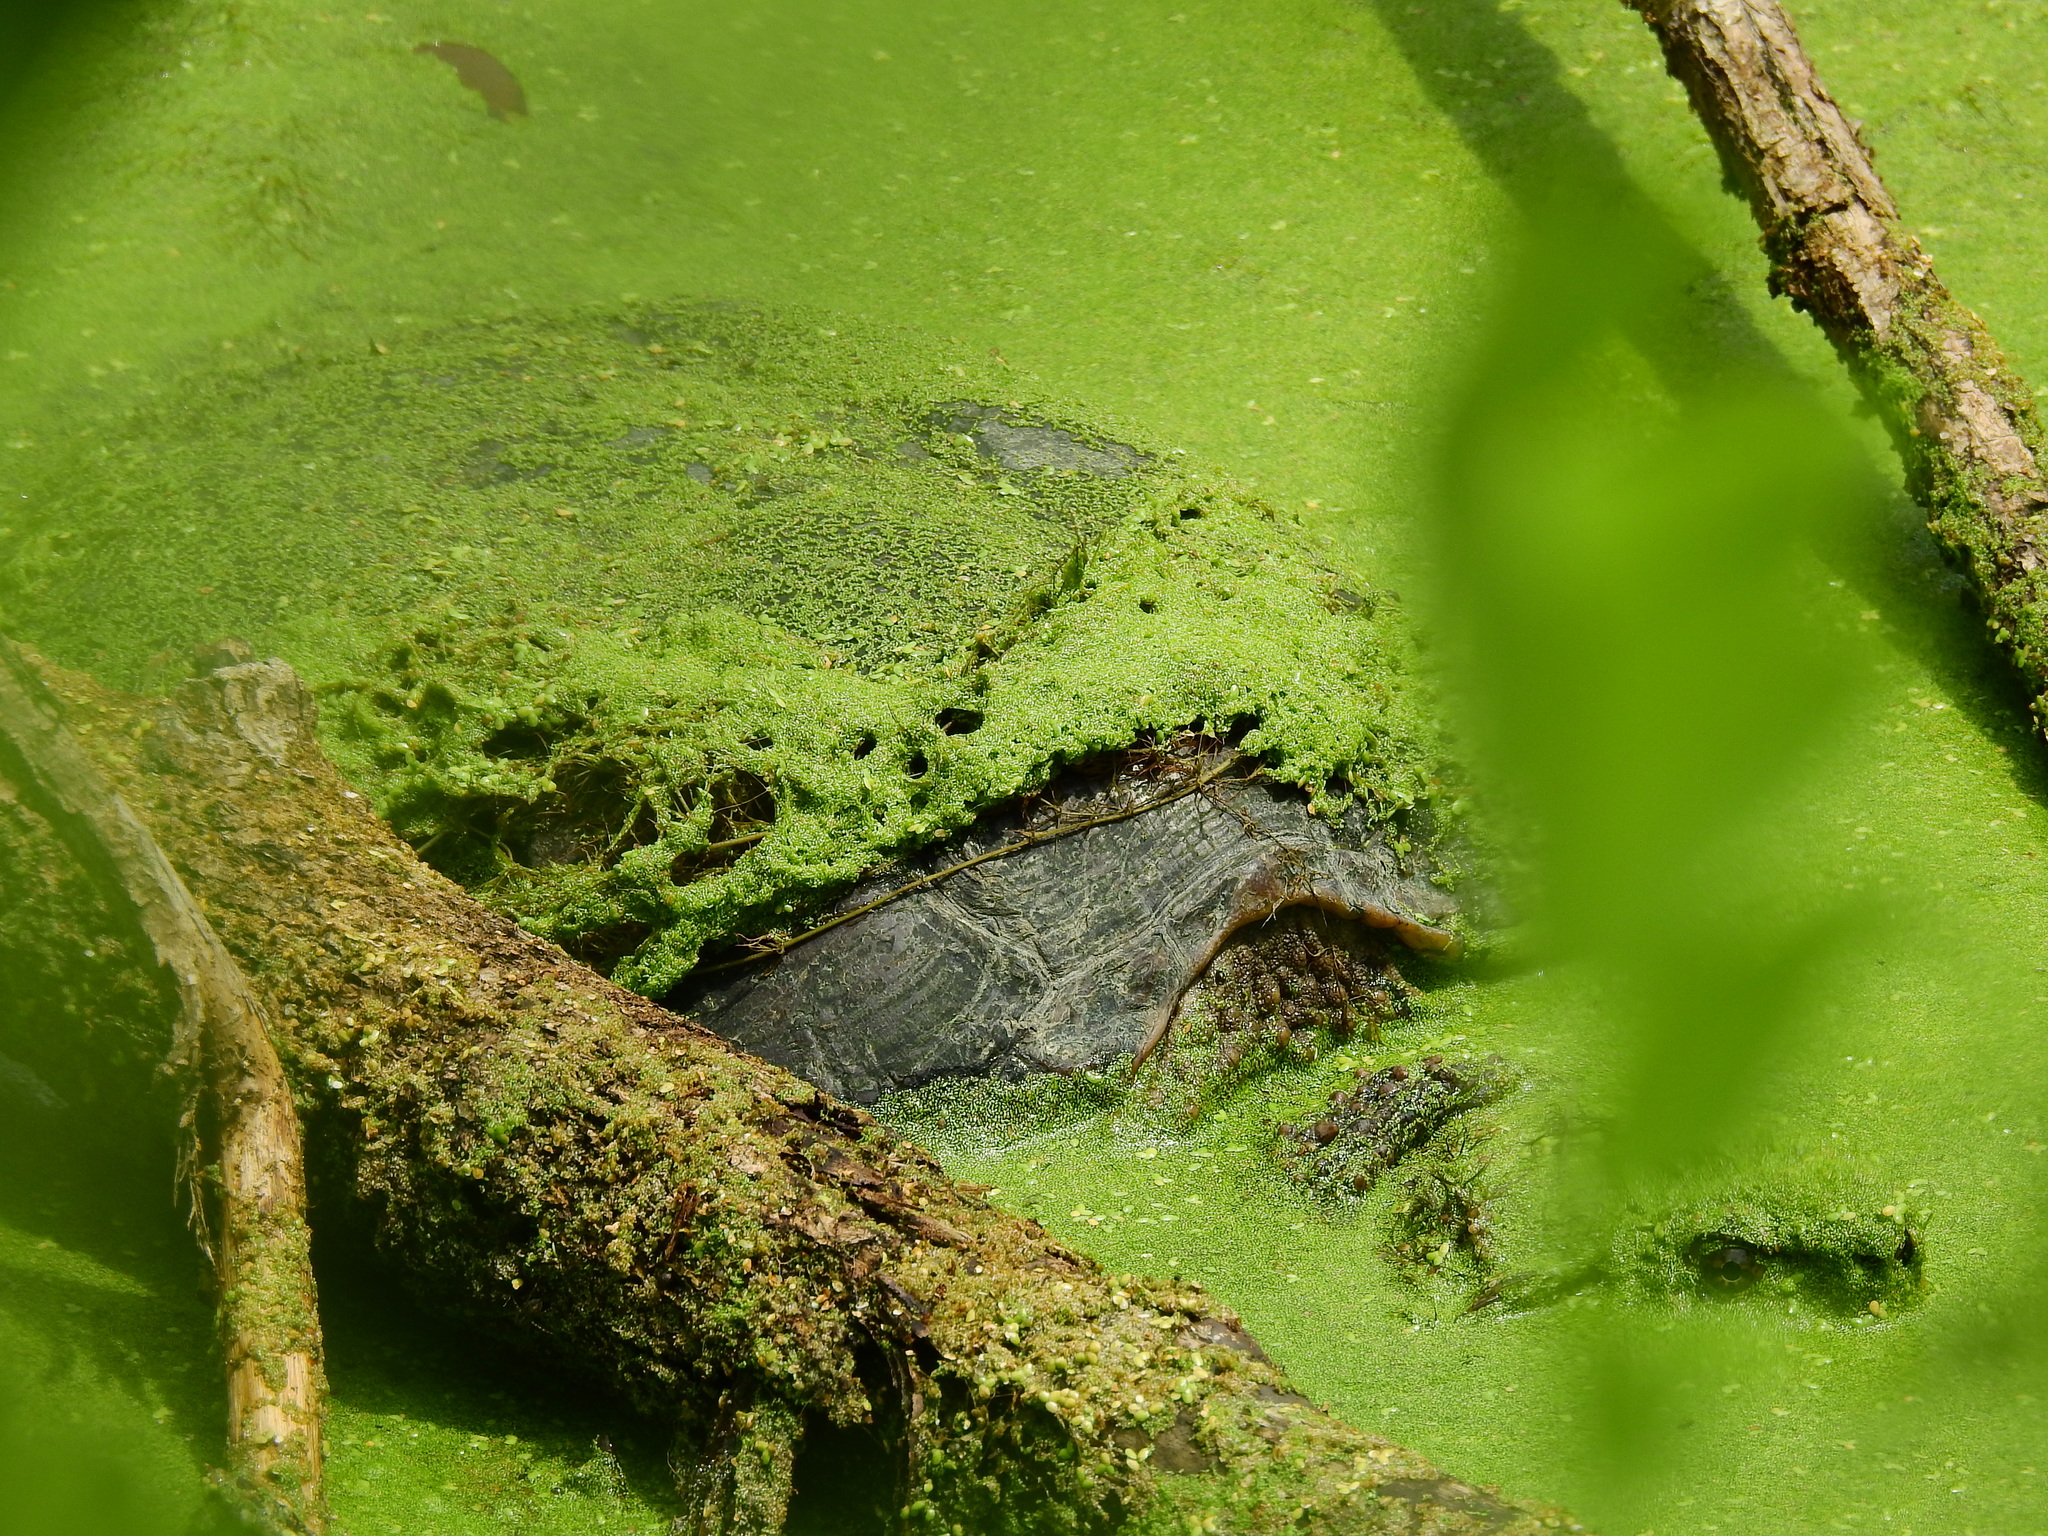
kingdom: Animalia
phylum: Chordata
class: Testudines
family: Chelydridae
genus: Chelydra
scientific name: Chelydra serpentina
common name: Common snapping turtle
